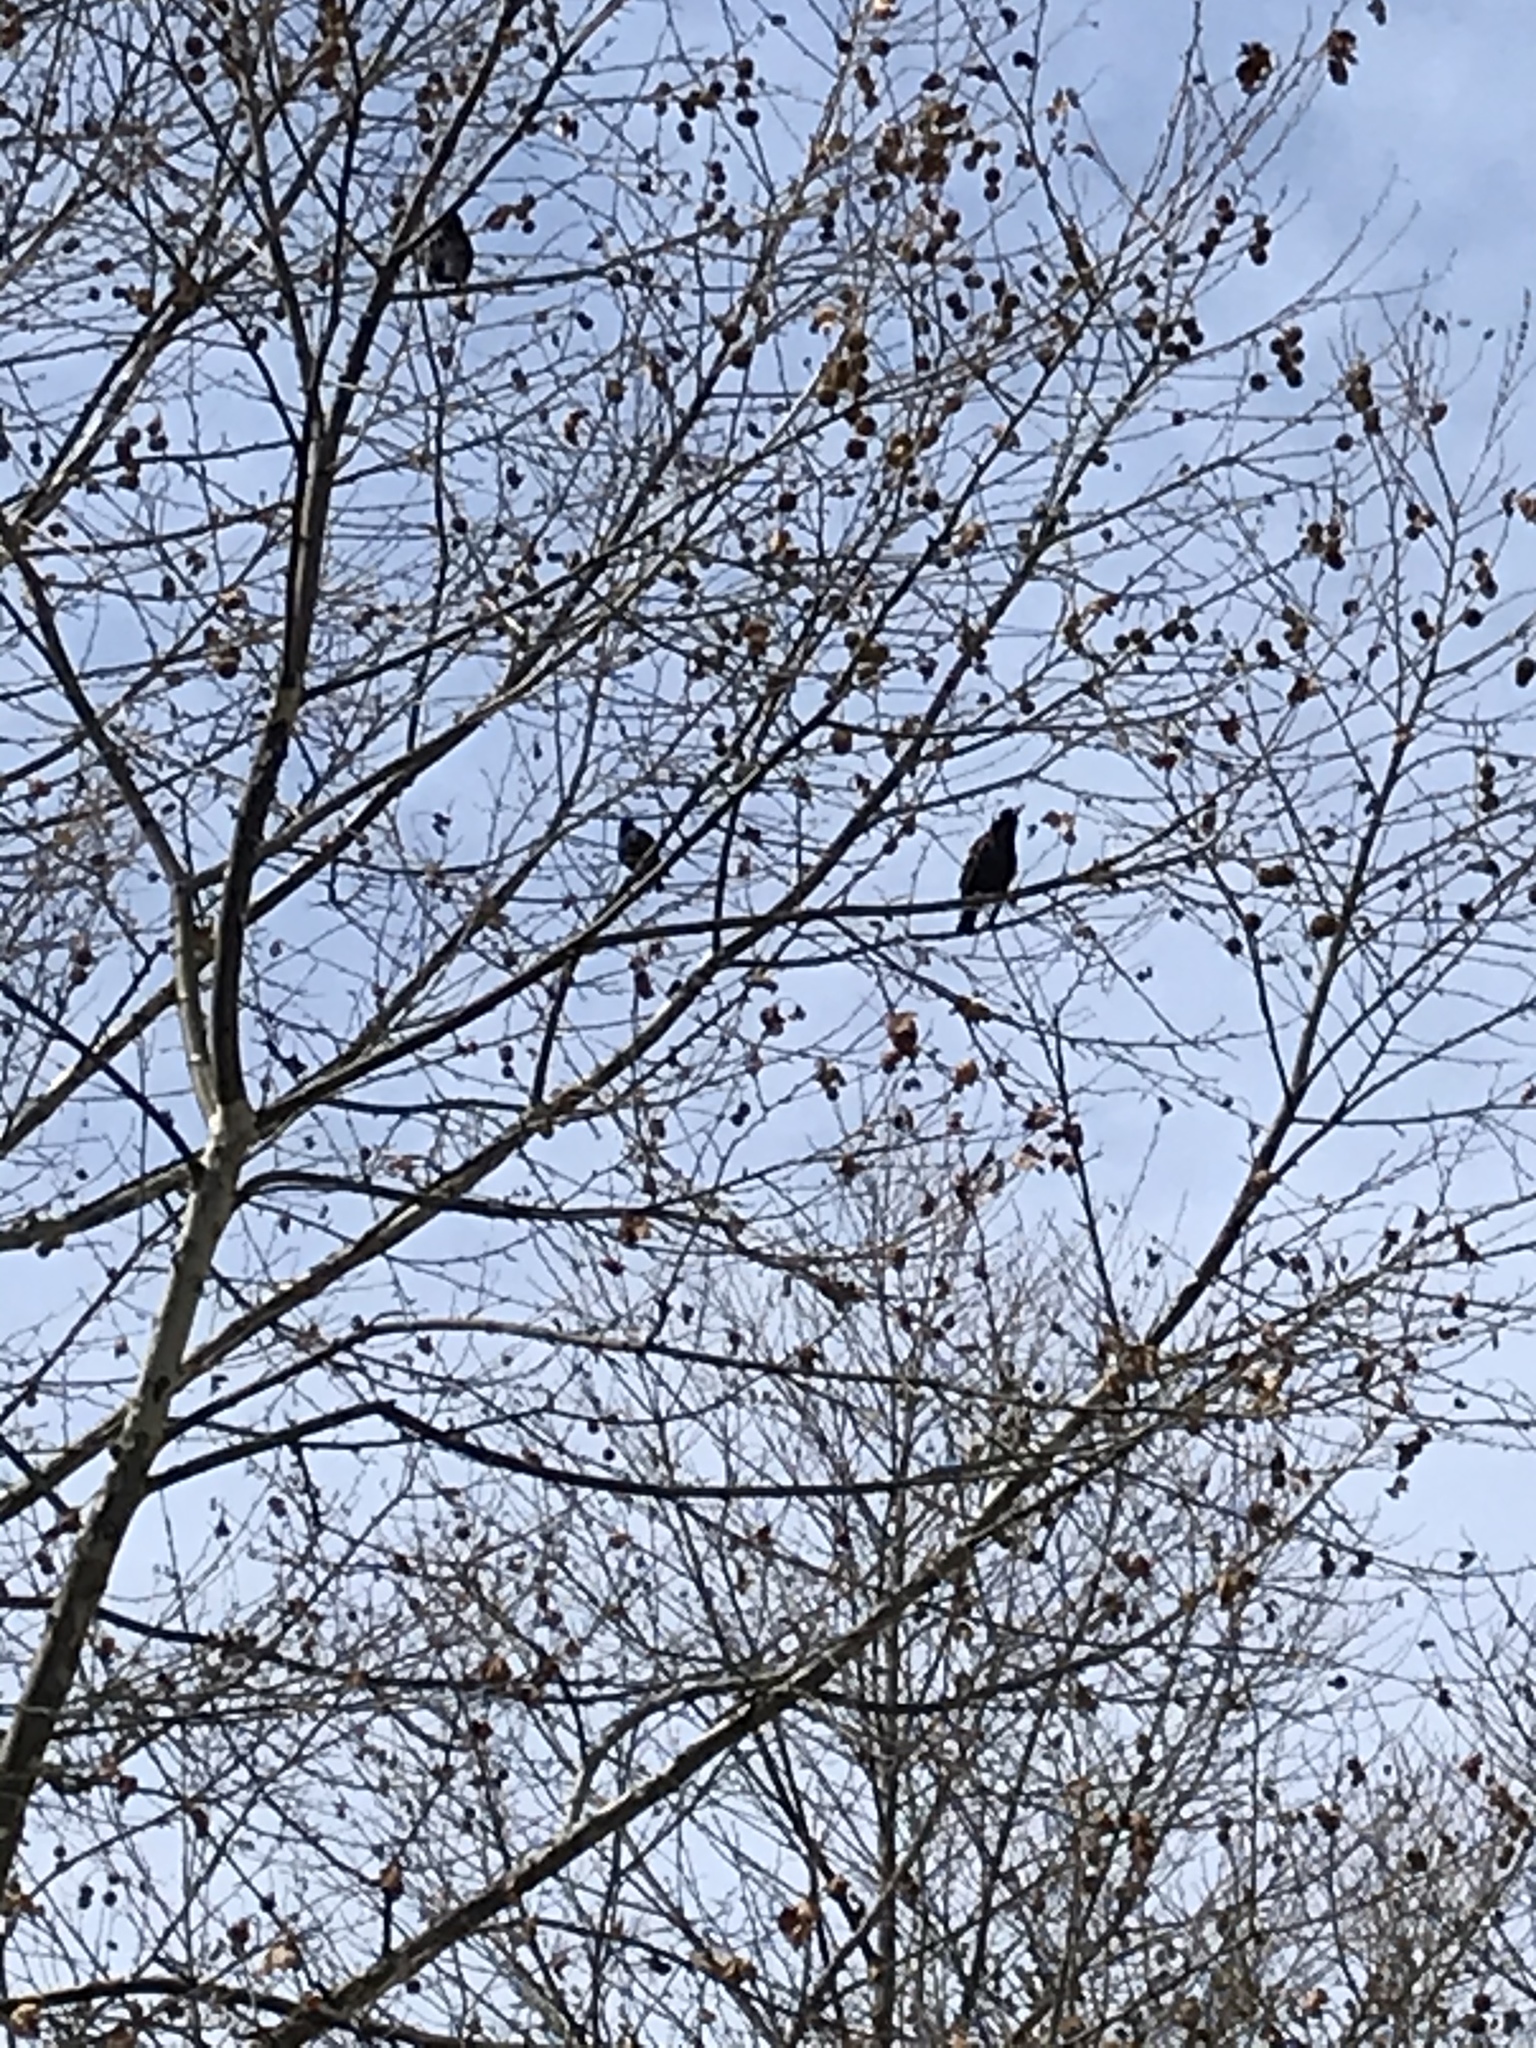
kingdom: Animalia
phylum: Chordata
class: Aves
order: Passeriformes
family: Sturnidae
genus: Sturnus
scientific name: Sturnus vulgaris
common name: Common starling
